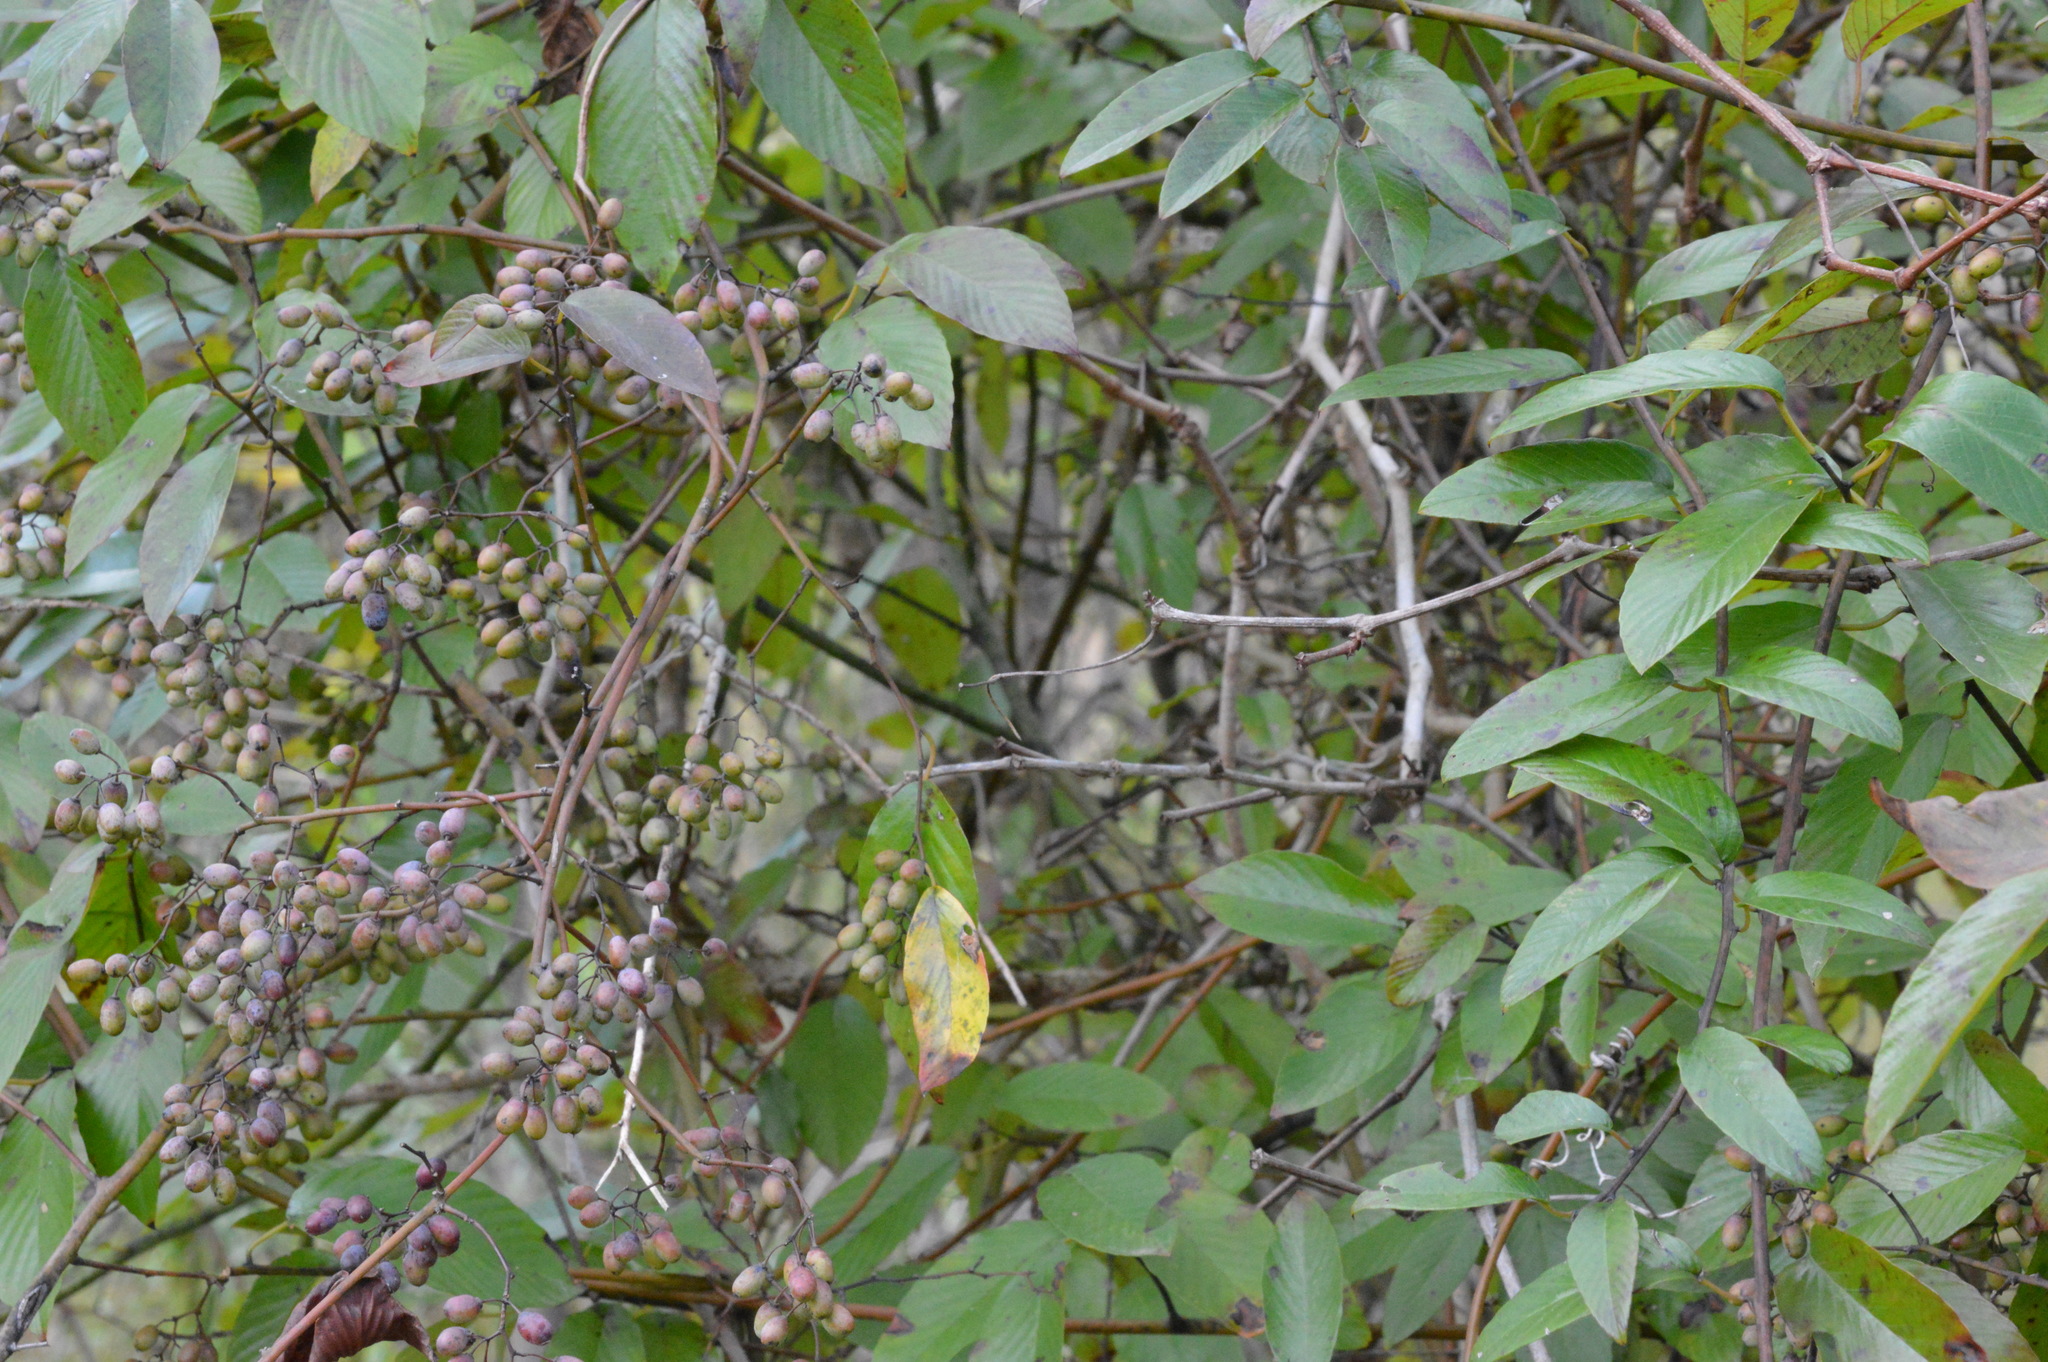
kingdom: Plantae
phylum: Tracheophyta
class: Magnoliopsida
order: Rosales
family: Rhamnaceae
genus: Berchemia
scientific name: Berchemia scandens
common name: Supplejack
